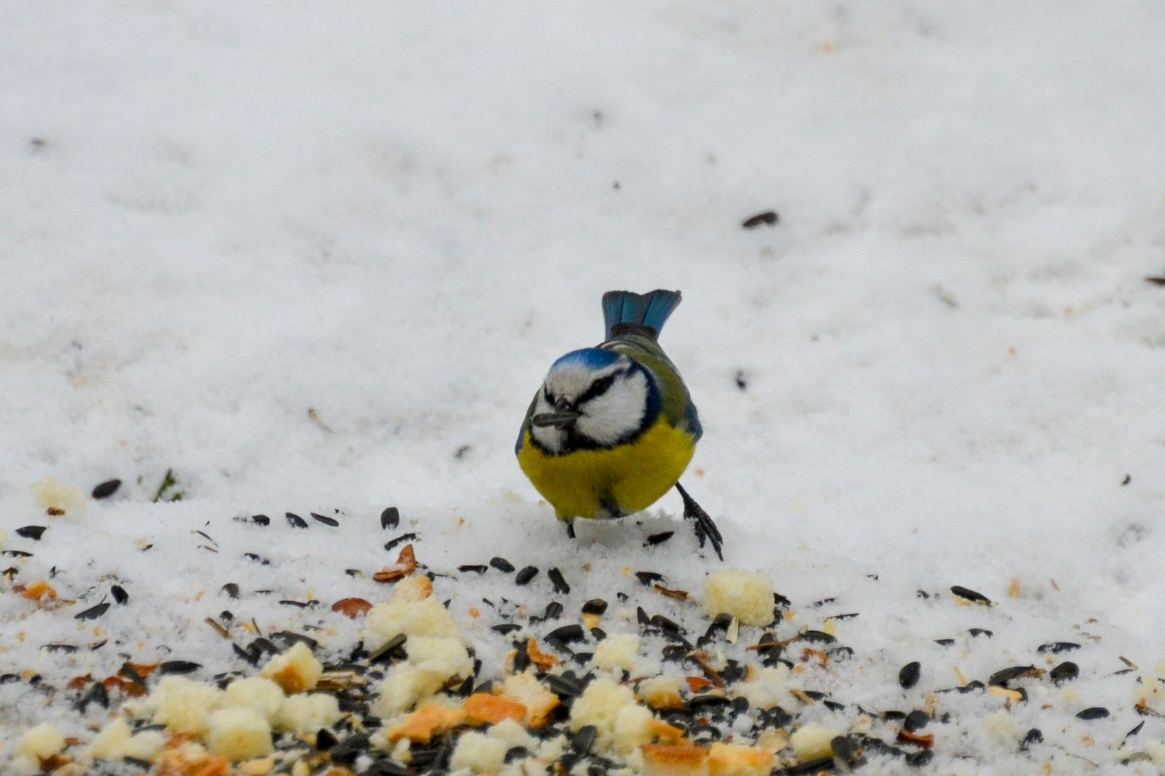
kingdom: Animalia
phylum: Chordata
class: Aves
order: Passeriformes
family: Paridae
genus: Cyanistes
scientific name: Cyanistes caeruleus
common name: Eurasian blue tit
